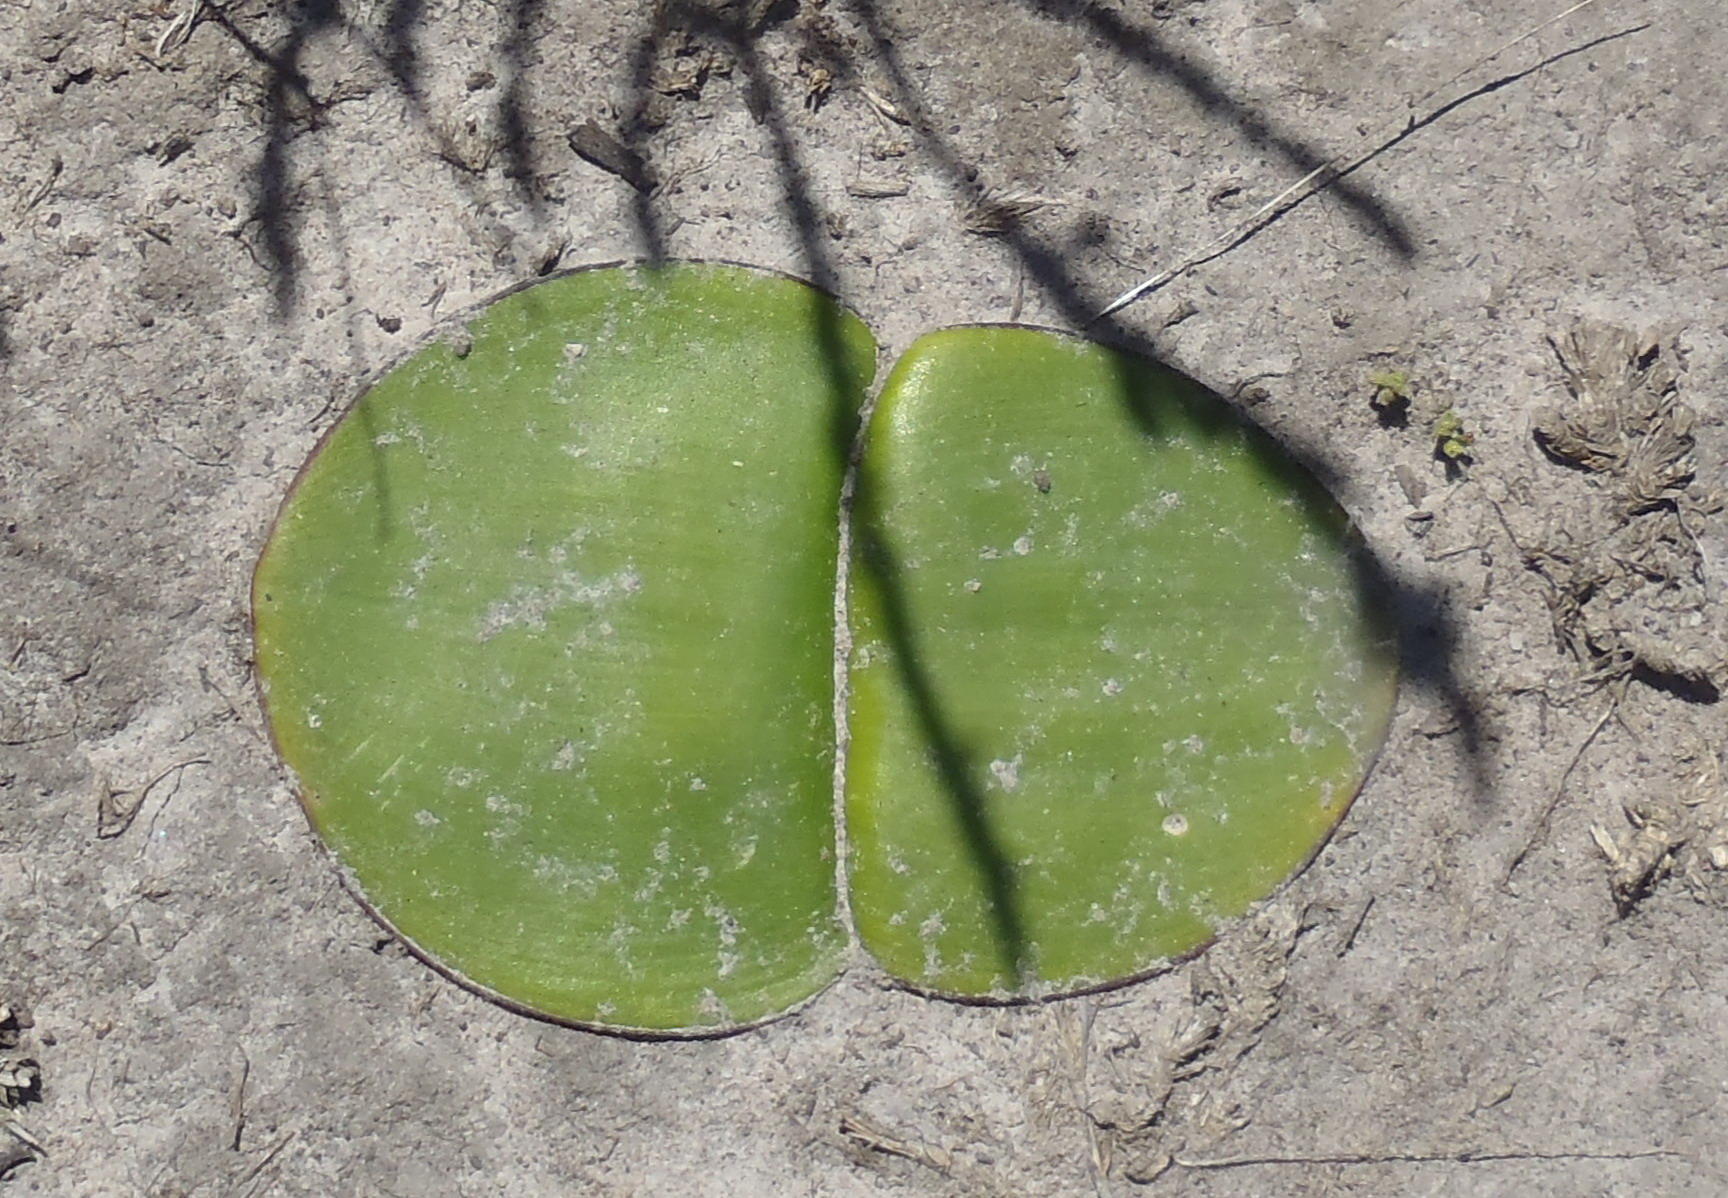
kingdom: Plantae
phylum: Tracheophyta
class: Liliopsida
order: Asparagales
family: Amaryllidaceae
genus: Haemanthus
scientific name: Haemanthus sanguineus
